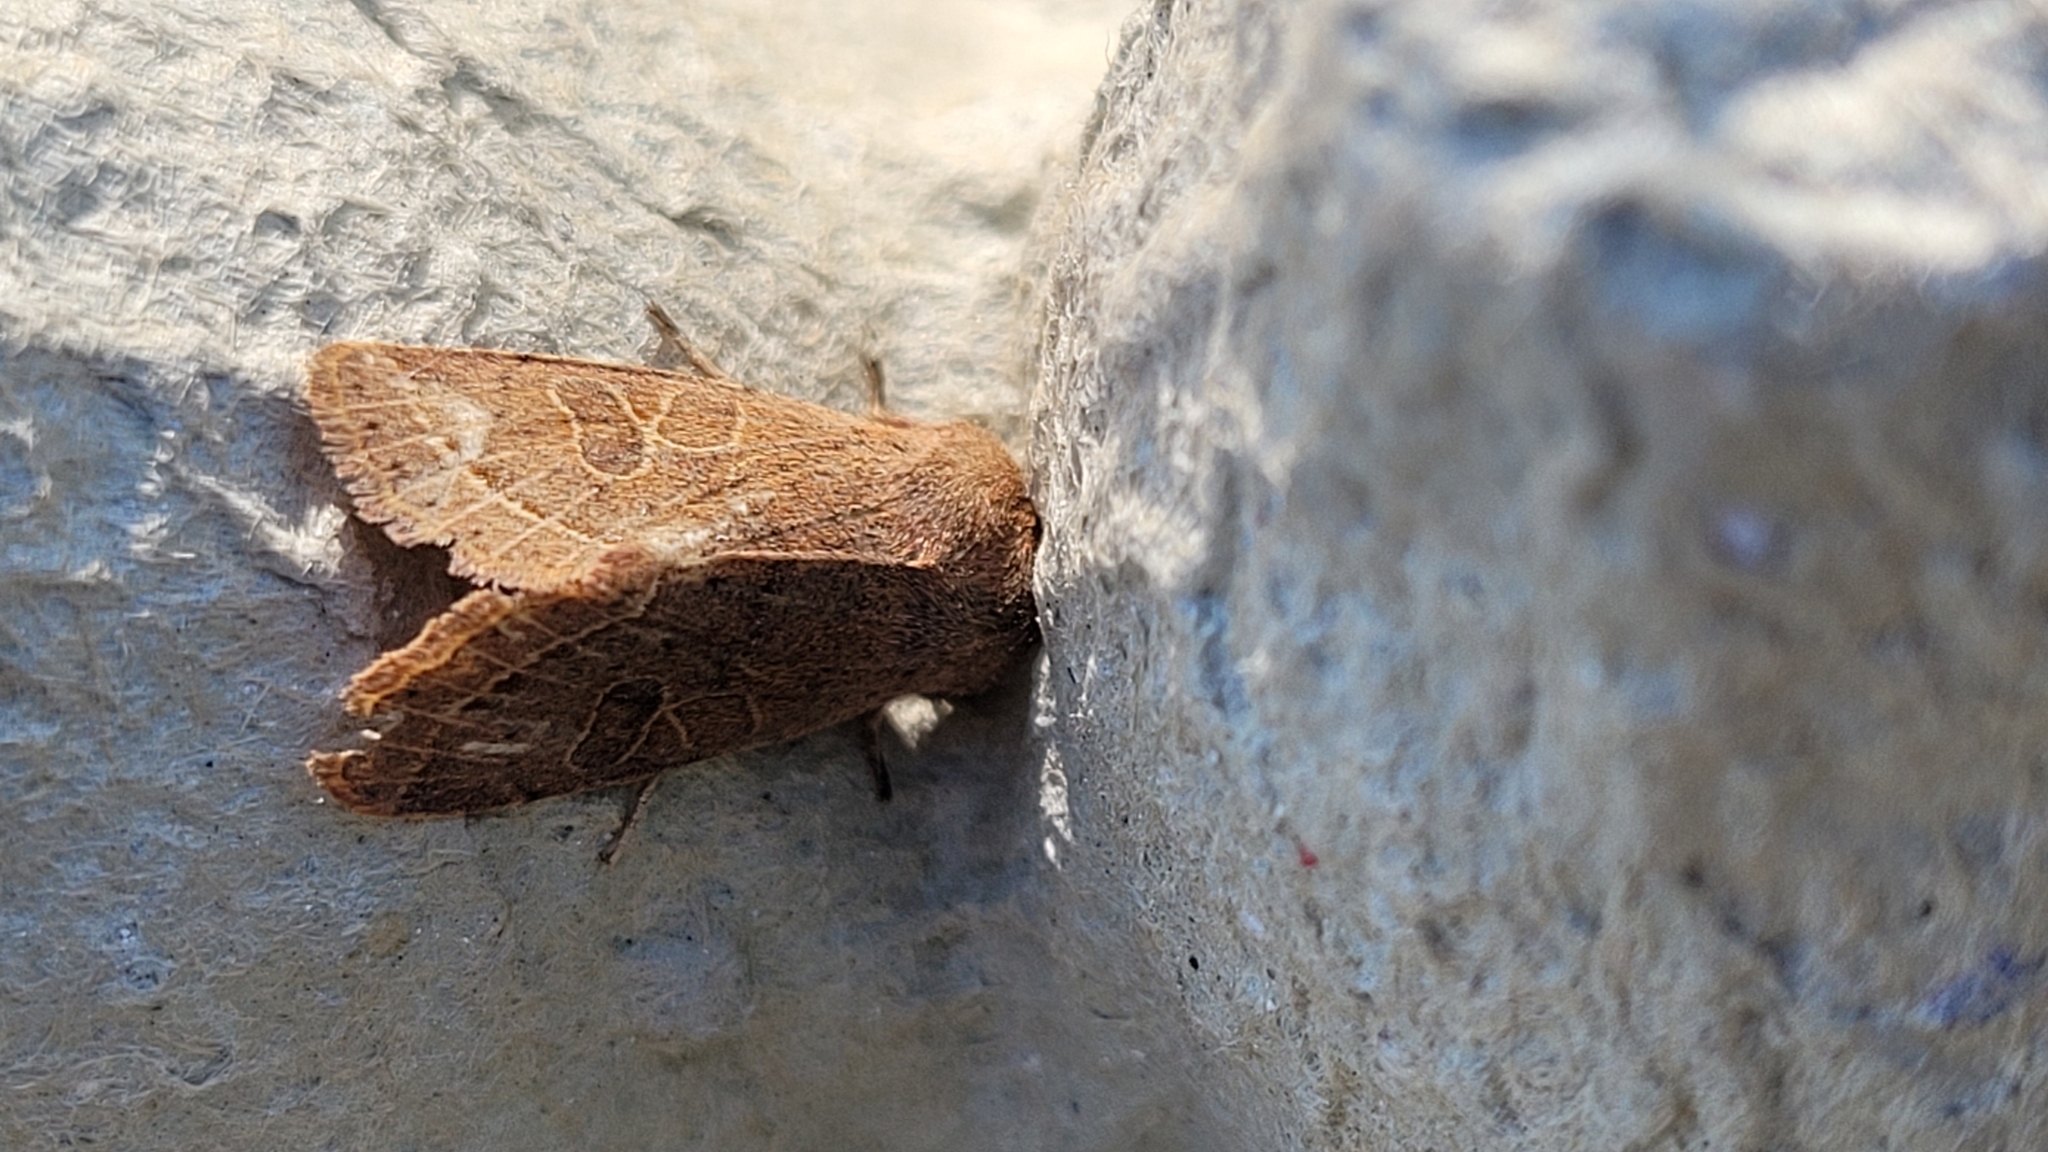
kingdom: Animalia
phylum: Arthropoda
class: Insecta
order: Lepidoptera
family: Noctuidae
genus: Orthosia
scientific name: Orthosia cerasi
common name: Common quaker
